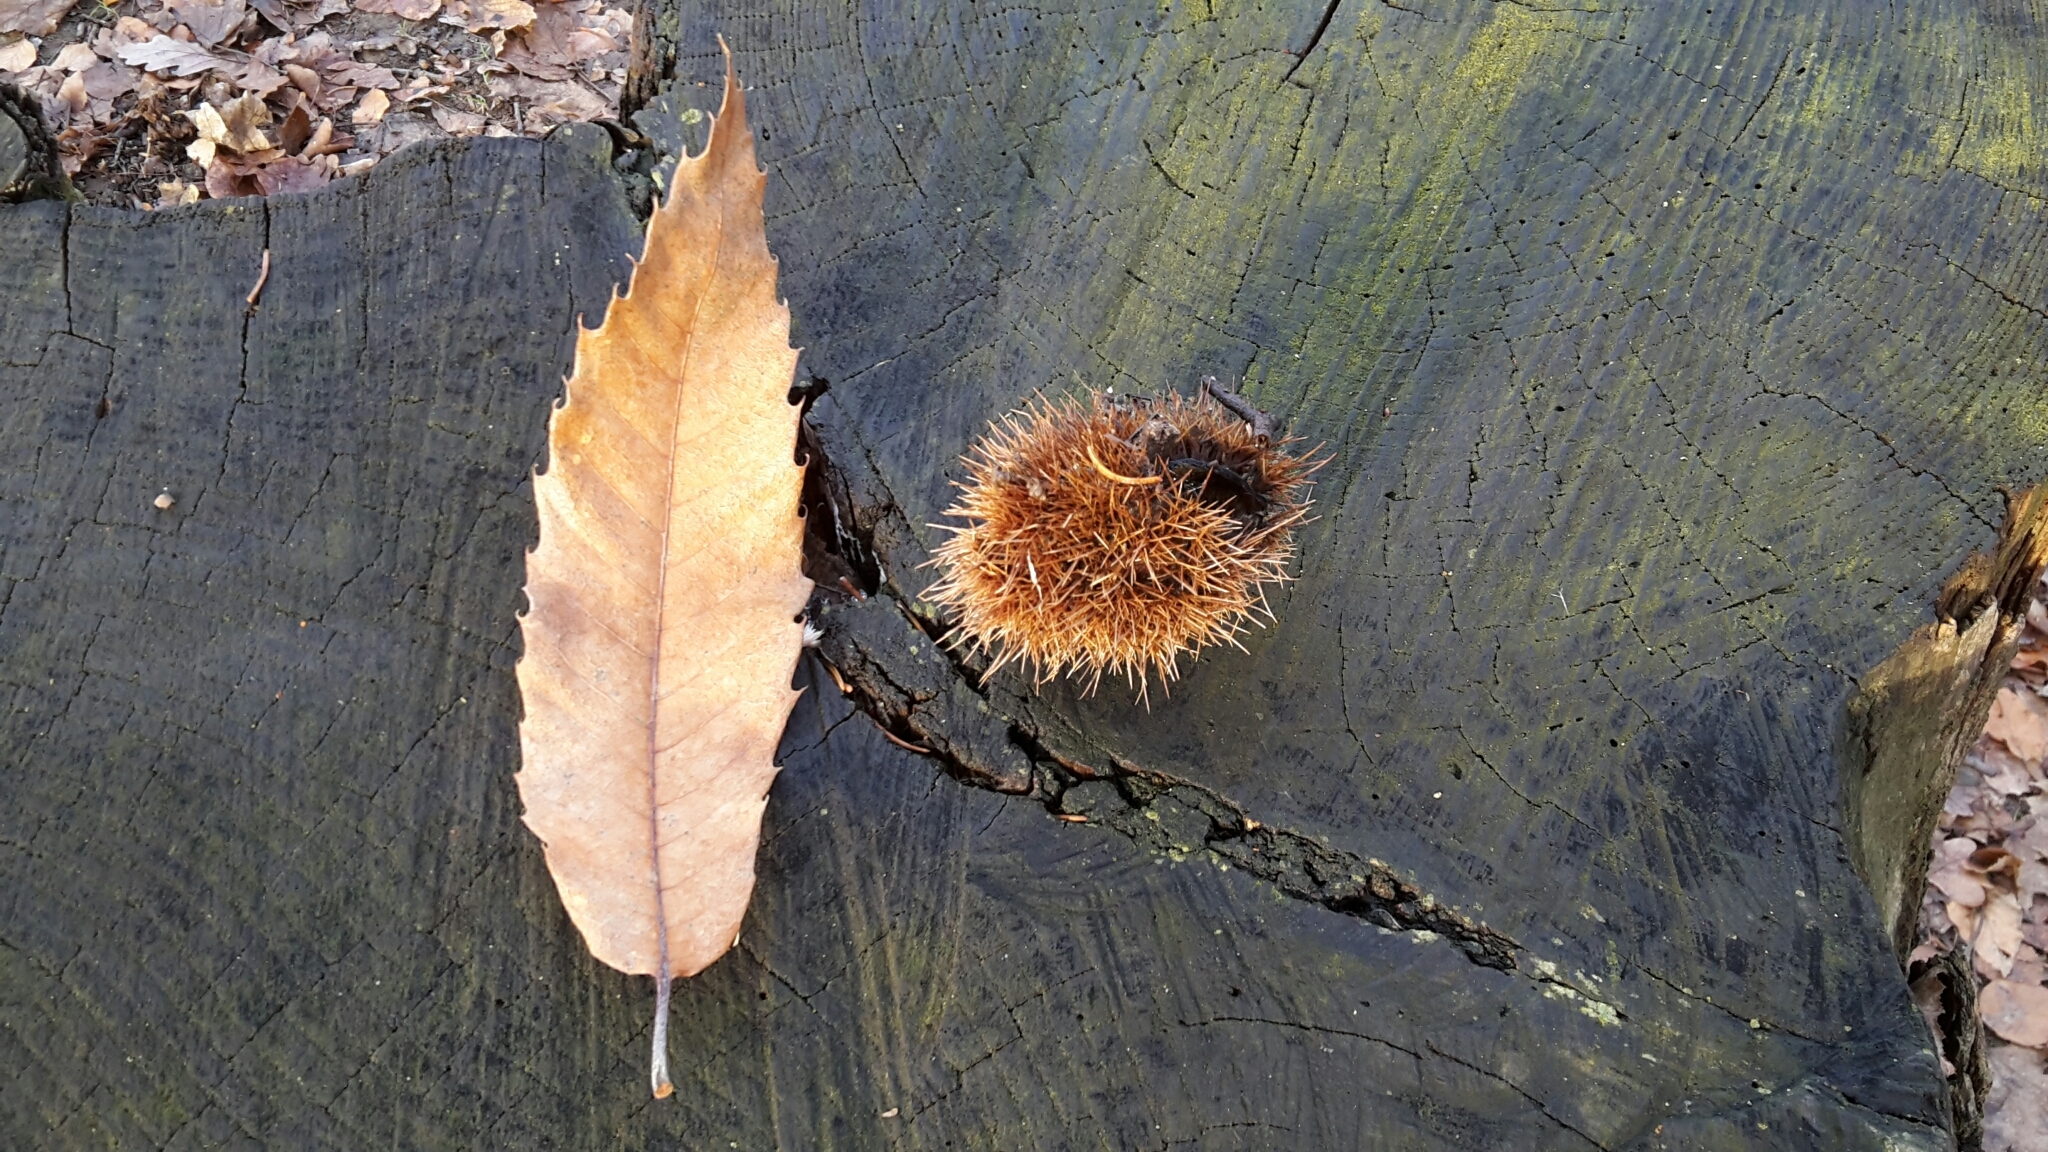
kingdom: Plantae
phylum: Tracheophyta
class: Magnoliopsida
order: Fagales
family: Fagaceae
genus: Castanea
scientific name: Castanea sativa
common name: Sweet chestnut
